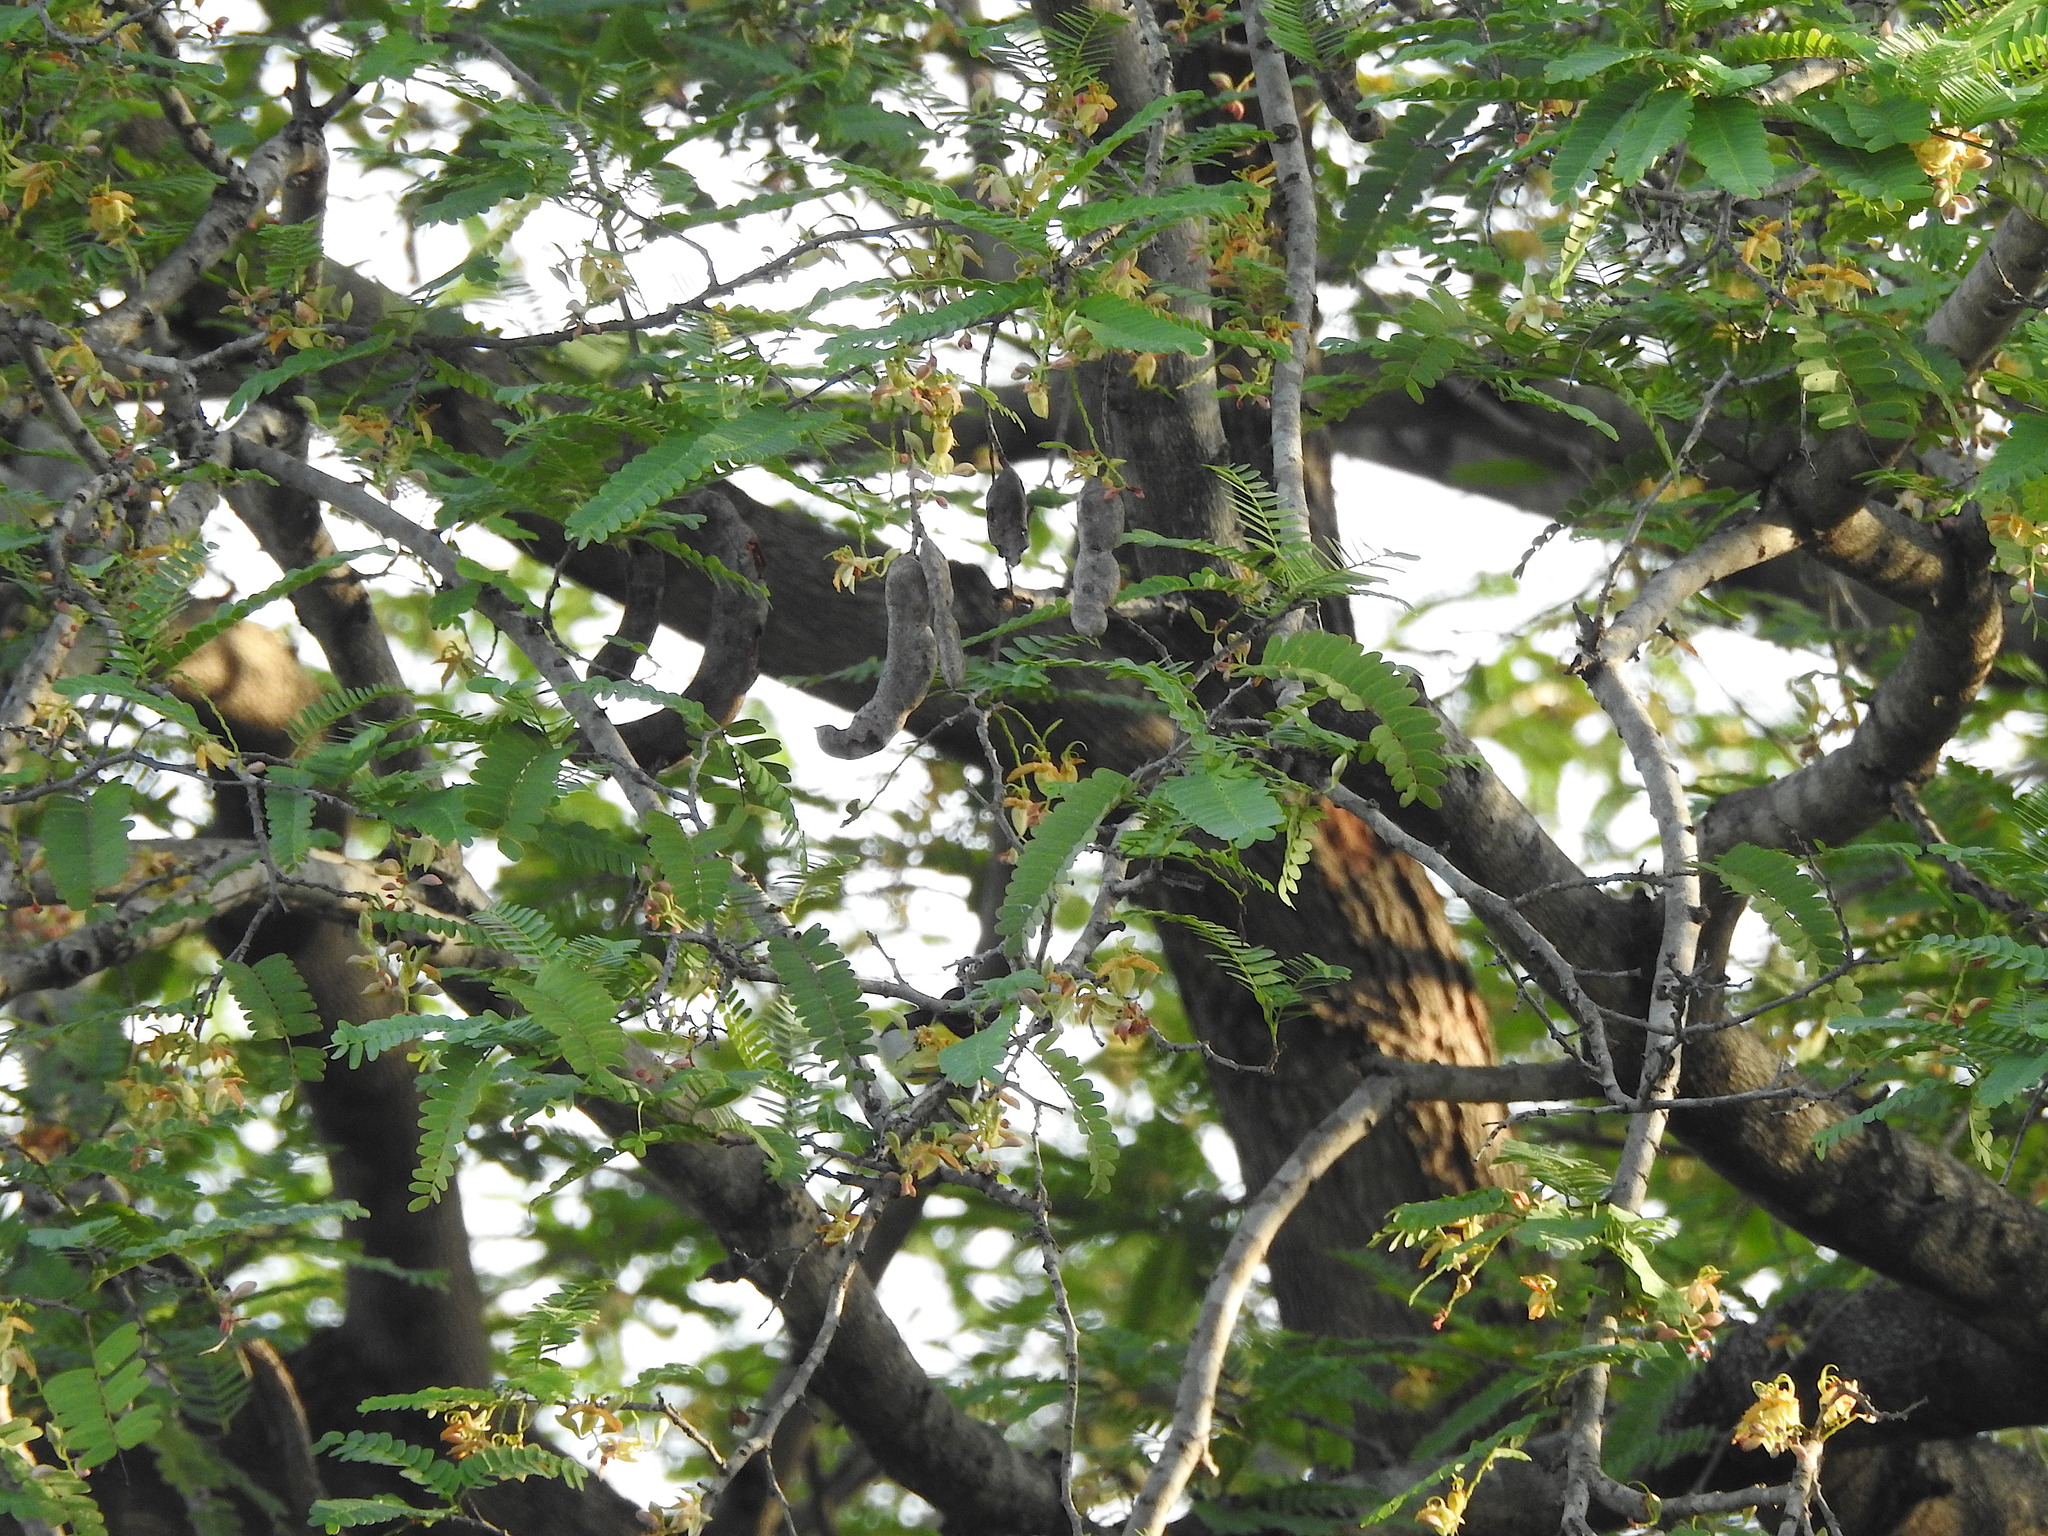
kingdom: Animalia
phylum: Chordata
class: Aves
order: Passeriformes
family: Nectariniidae
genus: Leptocoma
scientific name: Leptocoma zeylonica
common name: Purple-rumped sunbird
